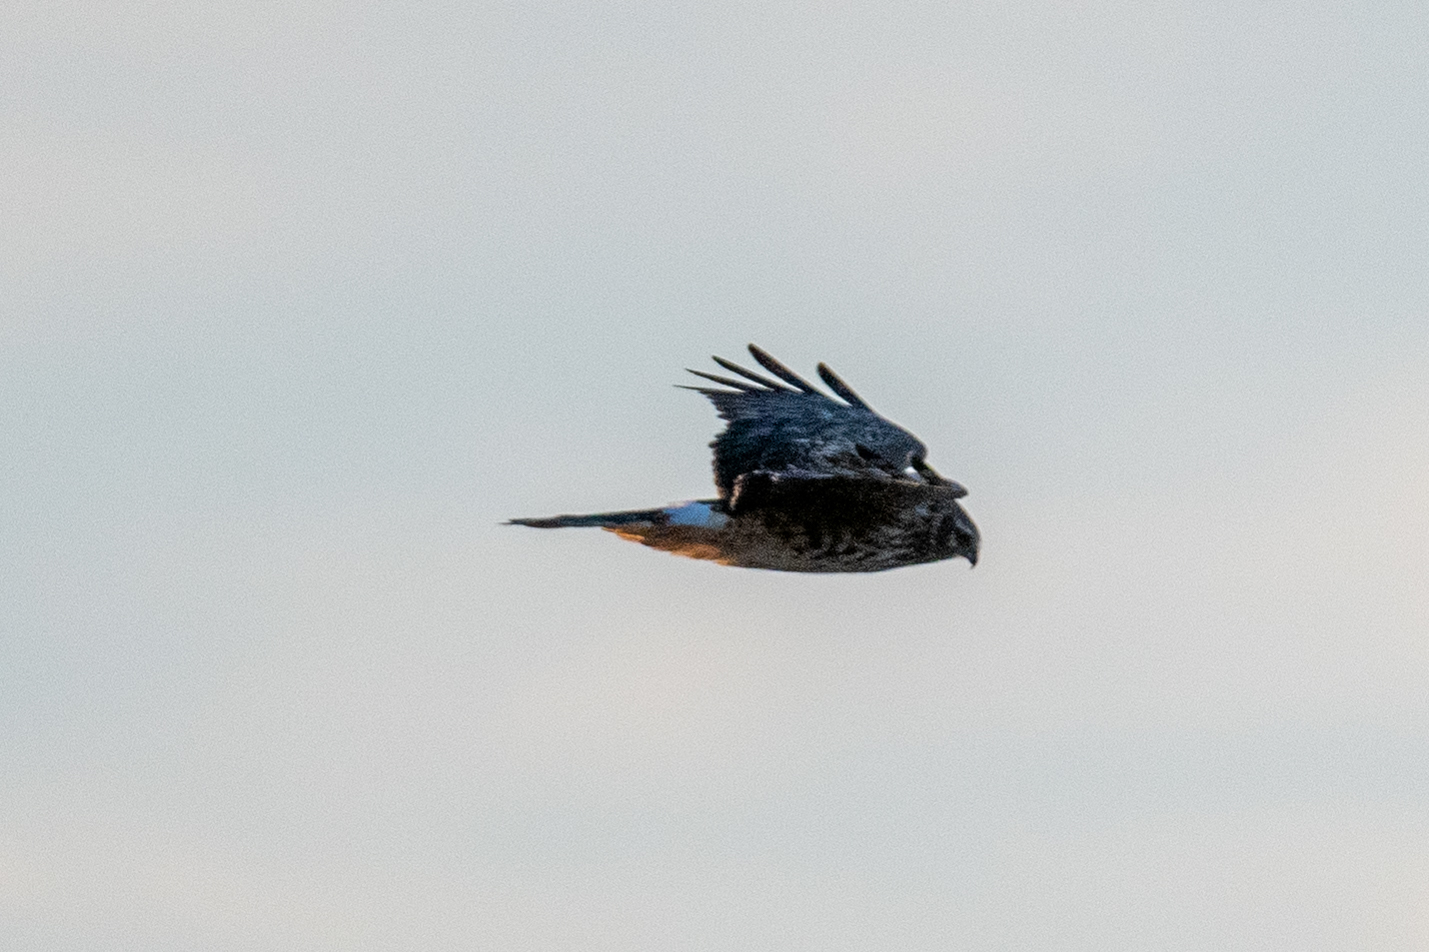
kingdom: Animalia
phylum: Chordata
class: Aves
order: Accipitriformes
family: Accipitridae
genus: Circus
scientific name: Circus cyaneus
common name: Hen harrier
